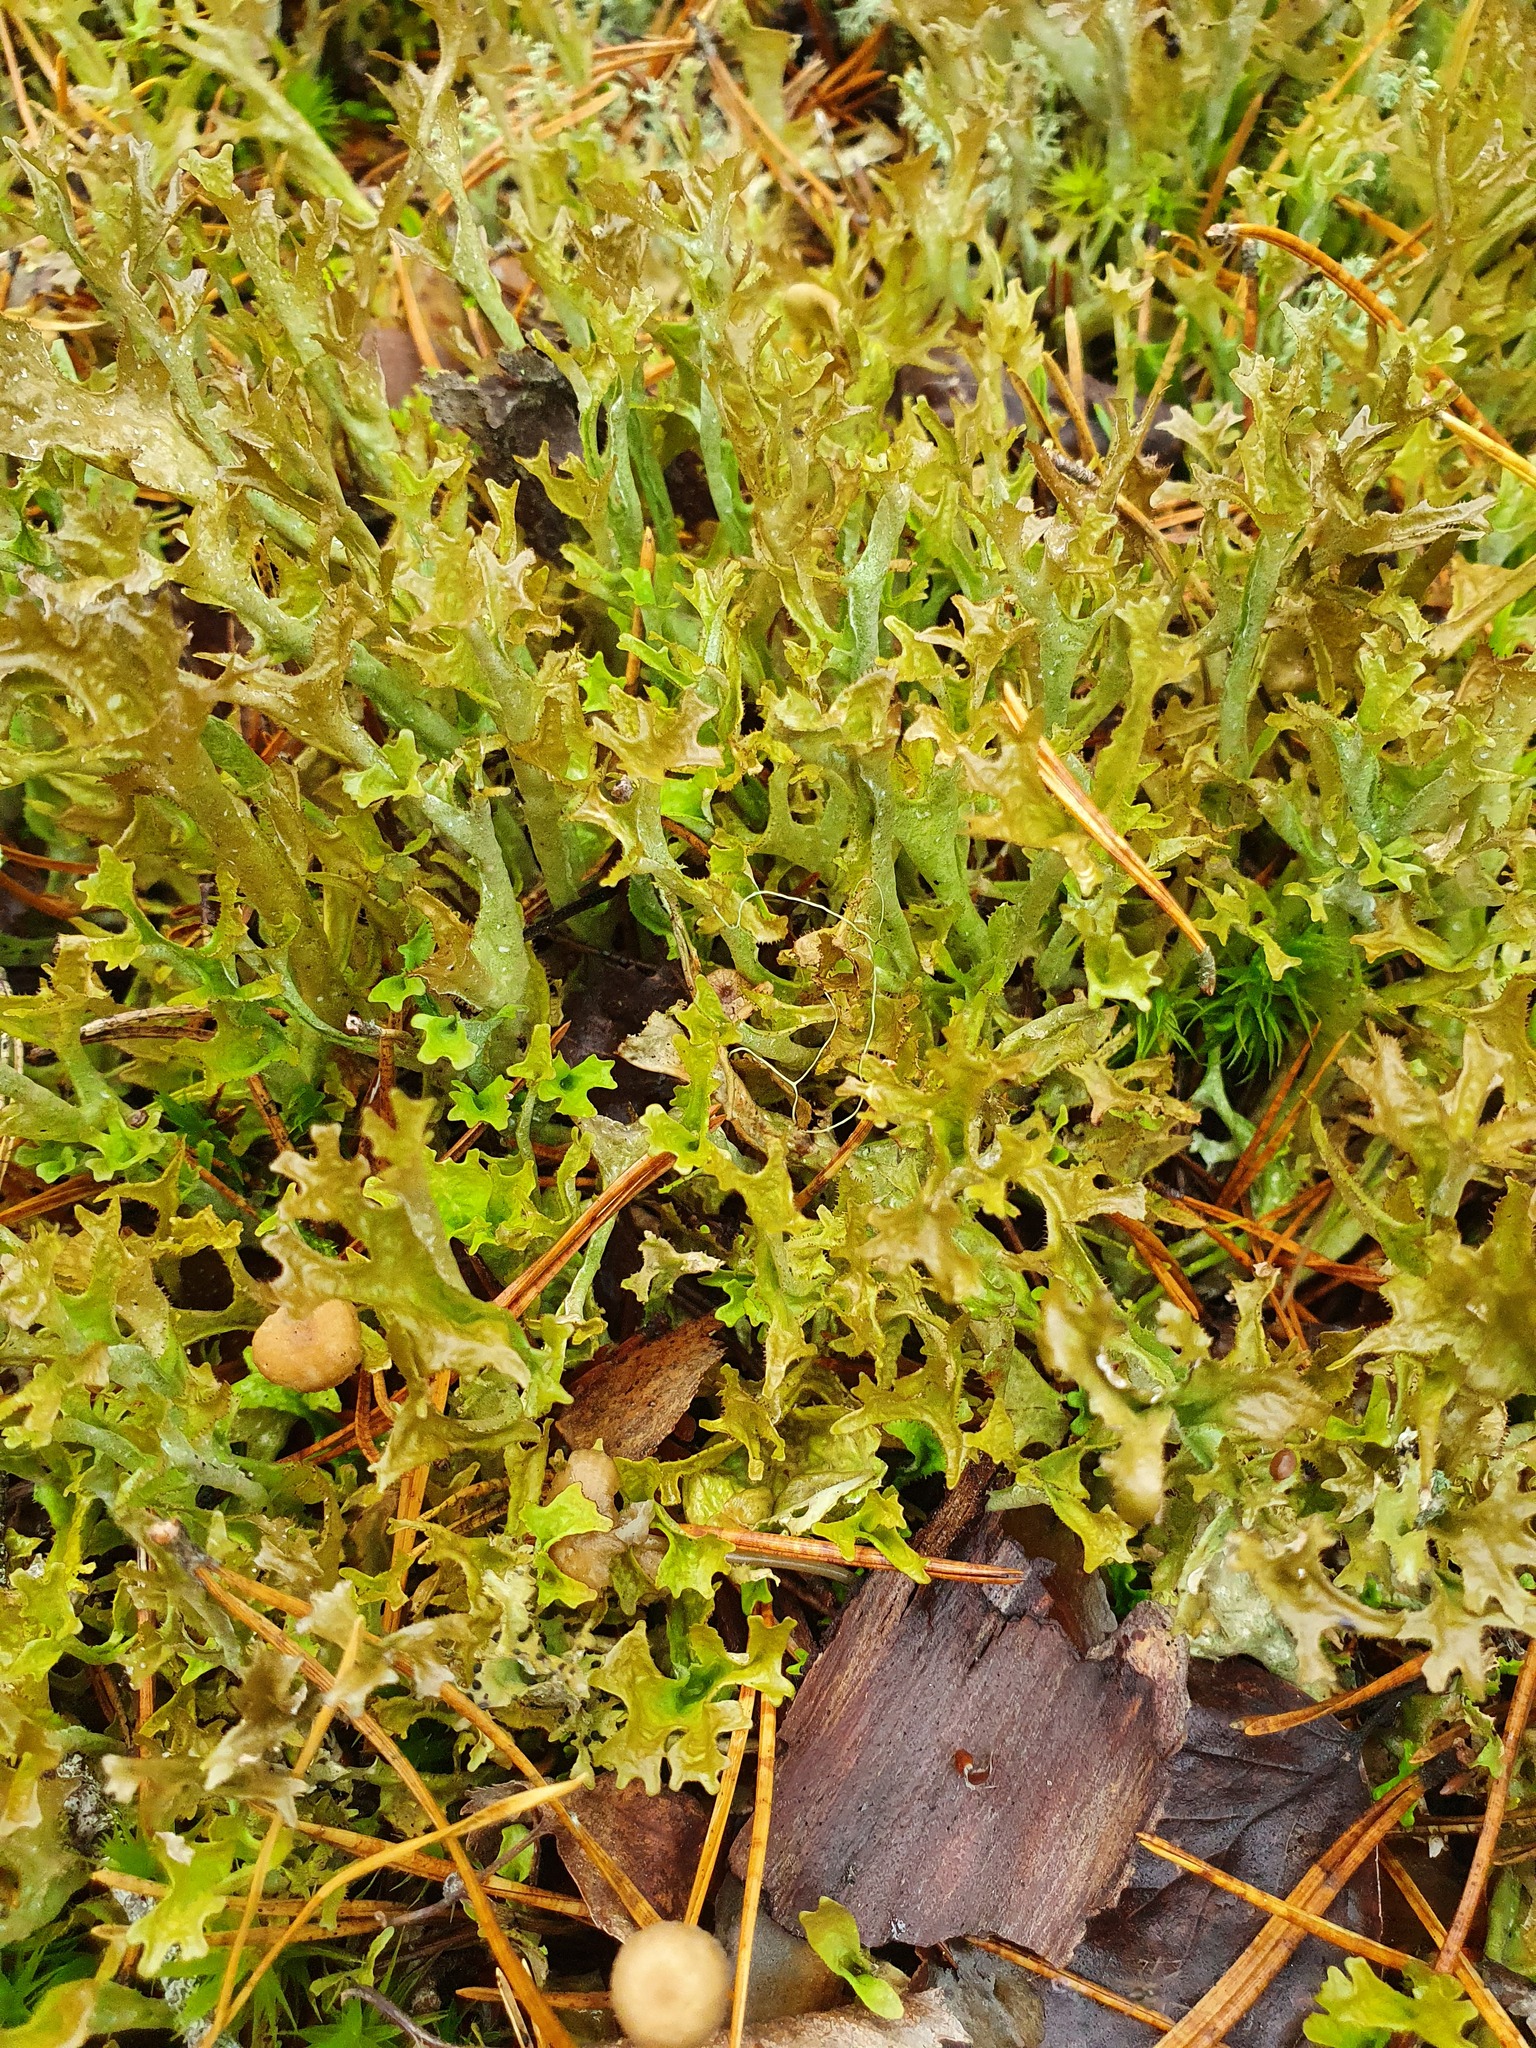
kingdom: Fungi
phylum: Ascomycota
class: Lecanoromycetes
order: Lecanorales
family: Parmeliaceae
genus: Cetraria
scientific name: Cetraria islandica
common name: Iceland lichen
